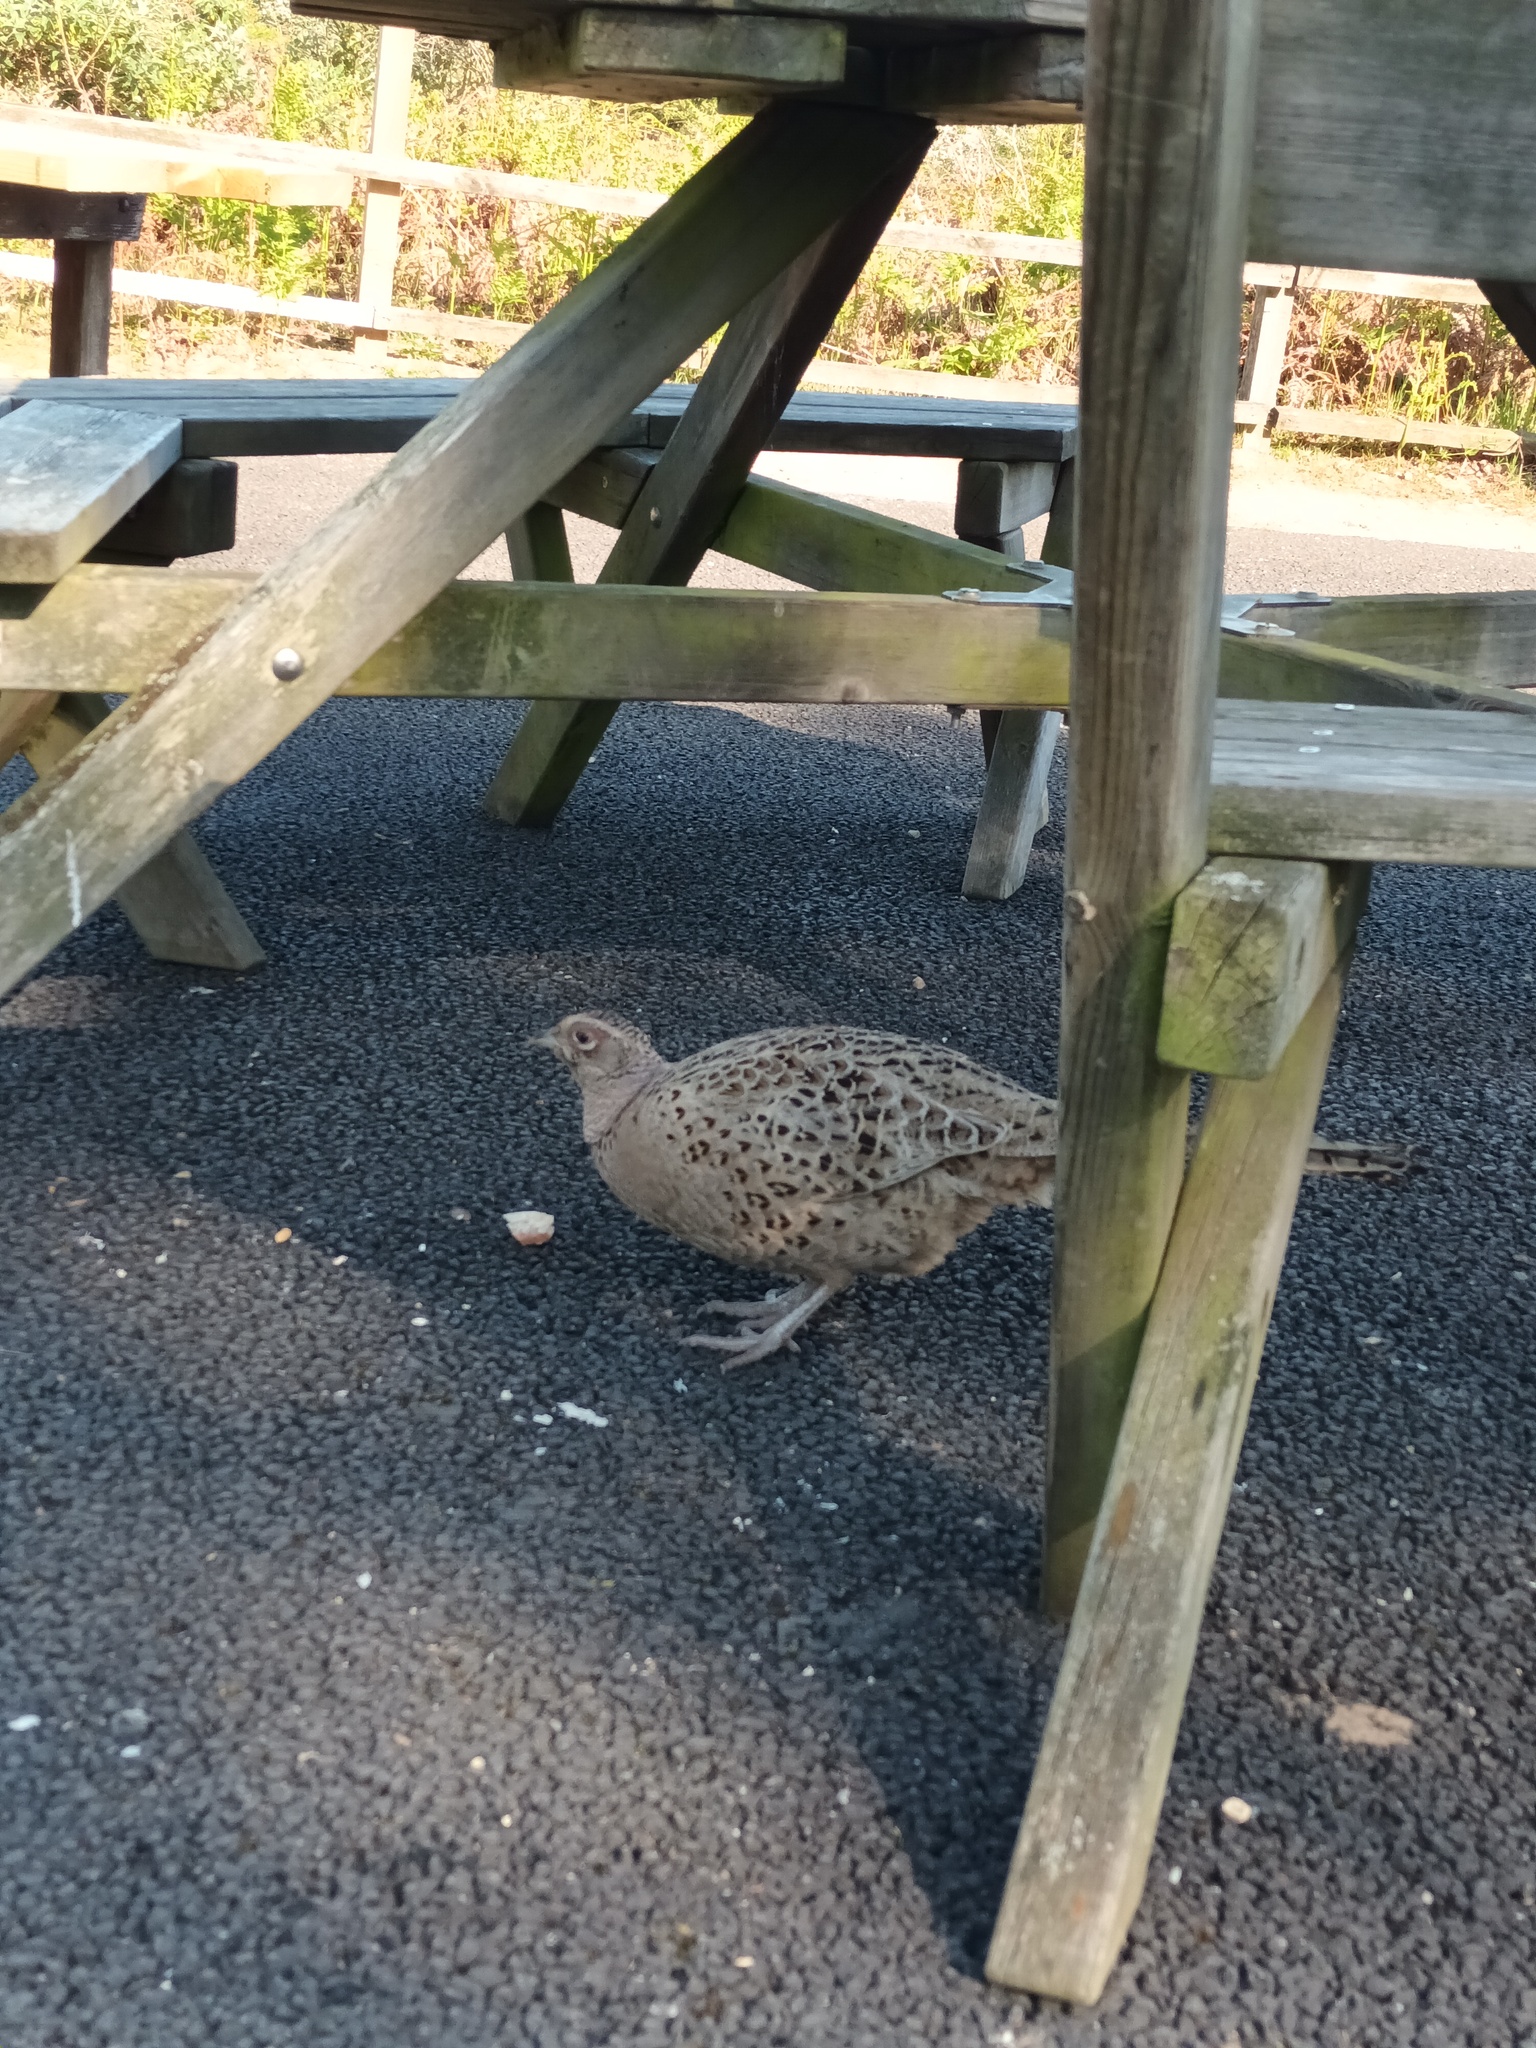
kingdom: Animalia
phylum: Chordata
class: Aves
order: Galliformes
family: Phasianidae
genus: Phasianus
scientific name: Phasianus colchicus
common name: Common pheasant
